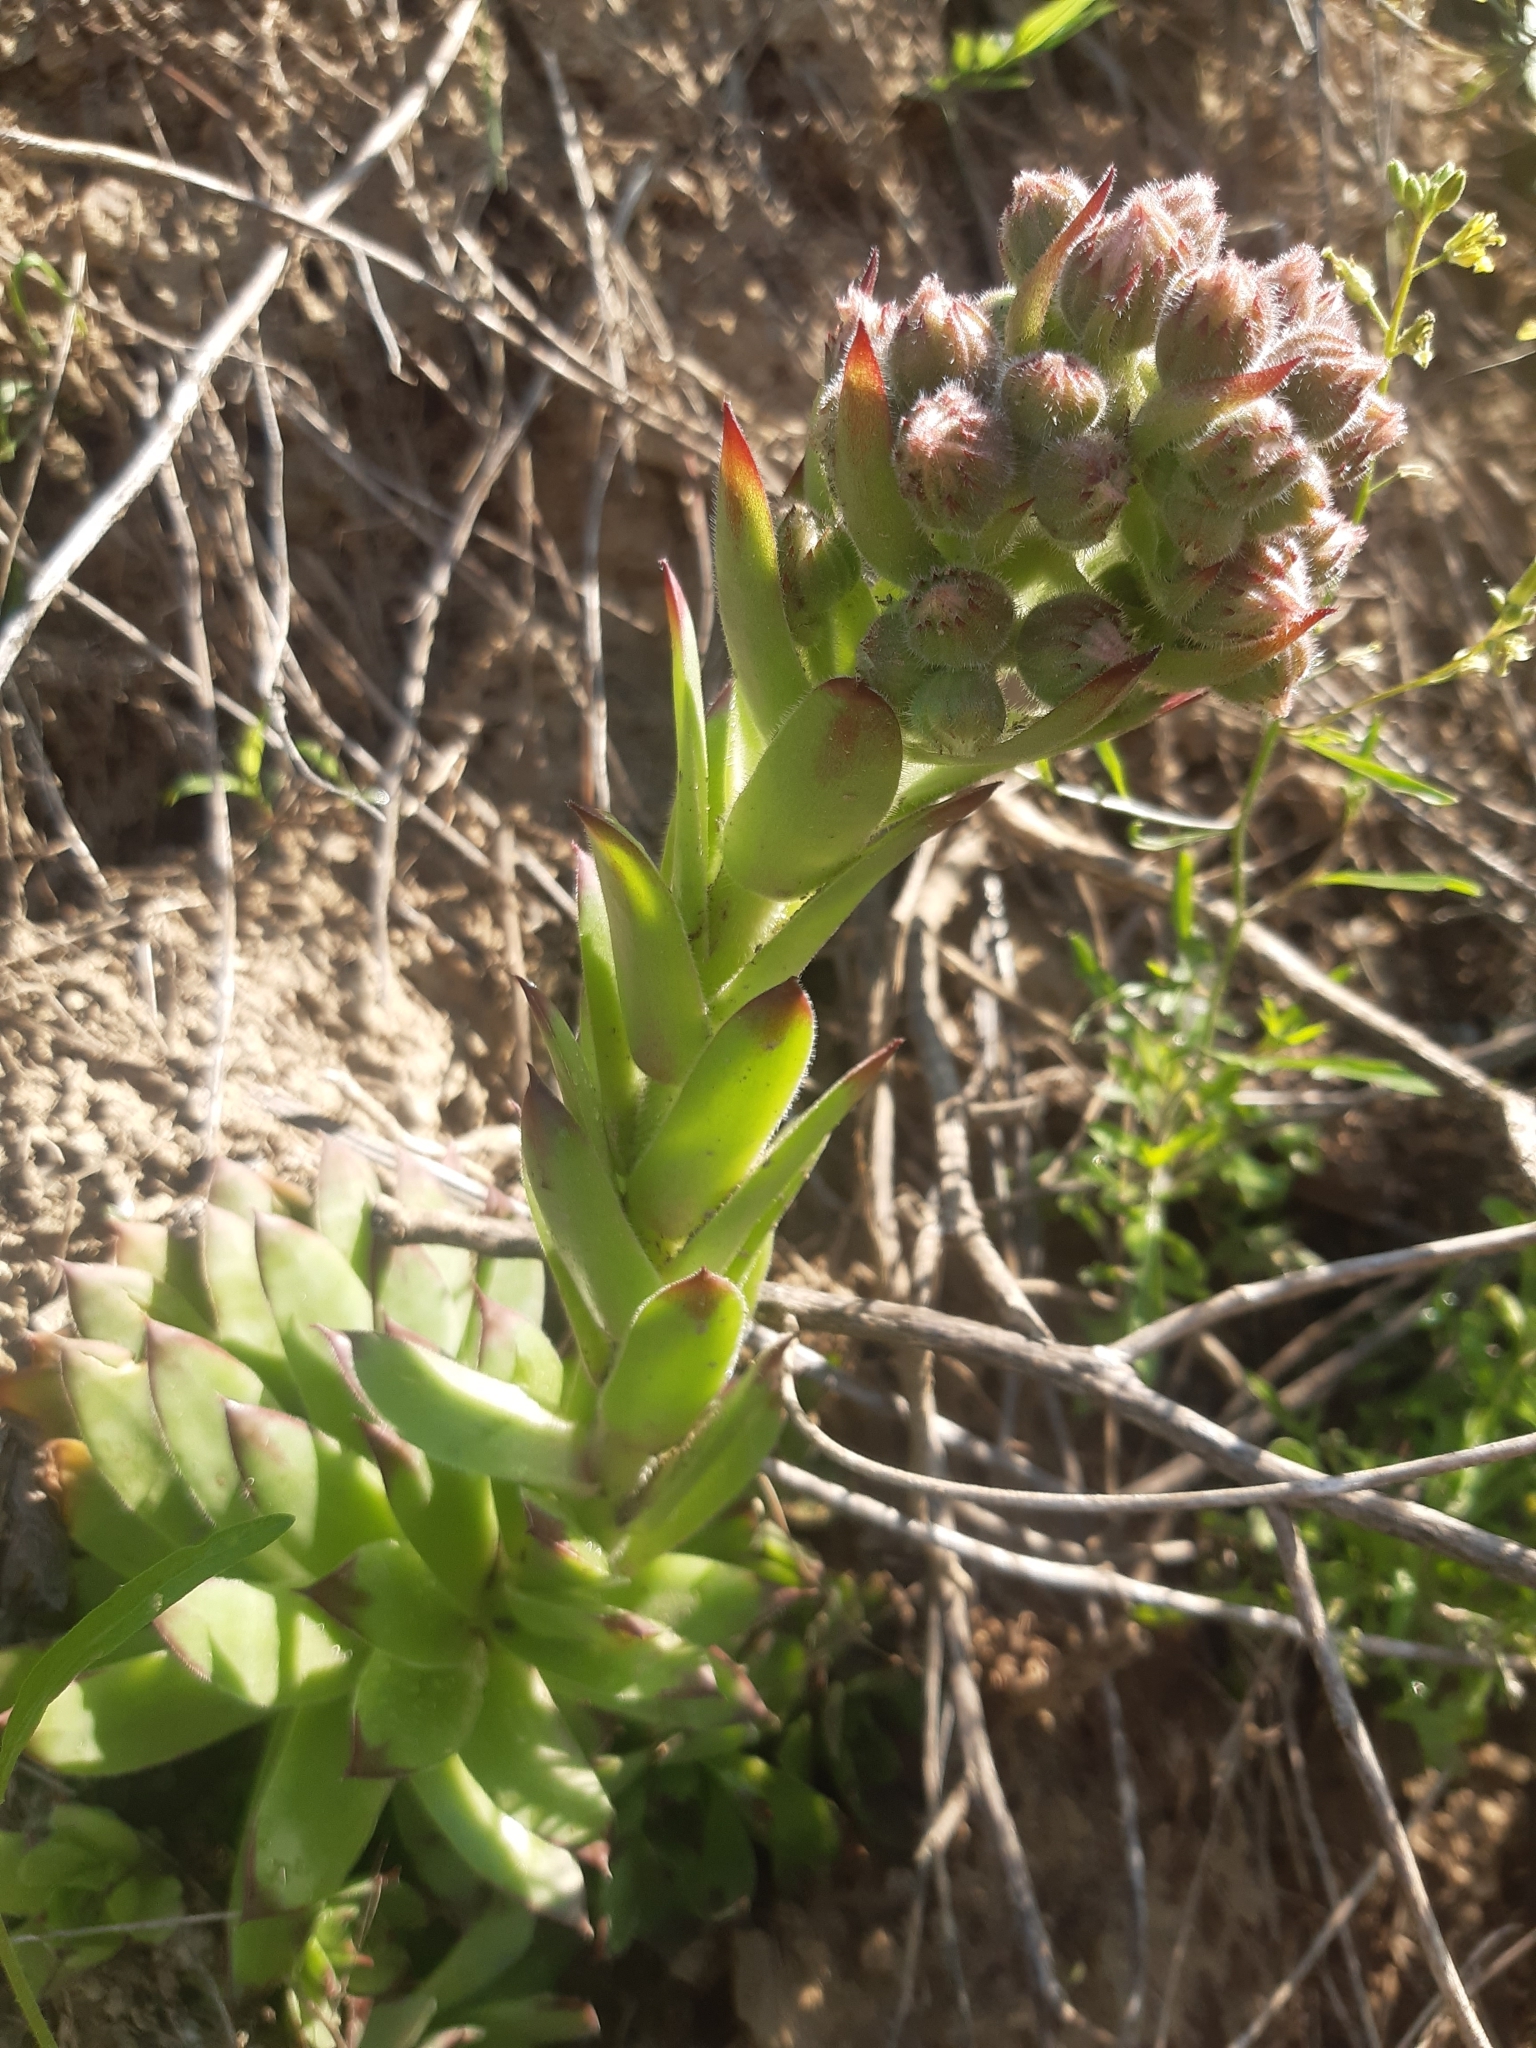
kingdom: Plantae
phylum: Tracheophyta
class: Magnoliopsida
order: Saxifragales
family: Crassulaceae
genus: Sempervivum
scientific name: Sempervivum tectorum
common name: House-leek
